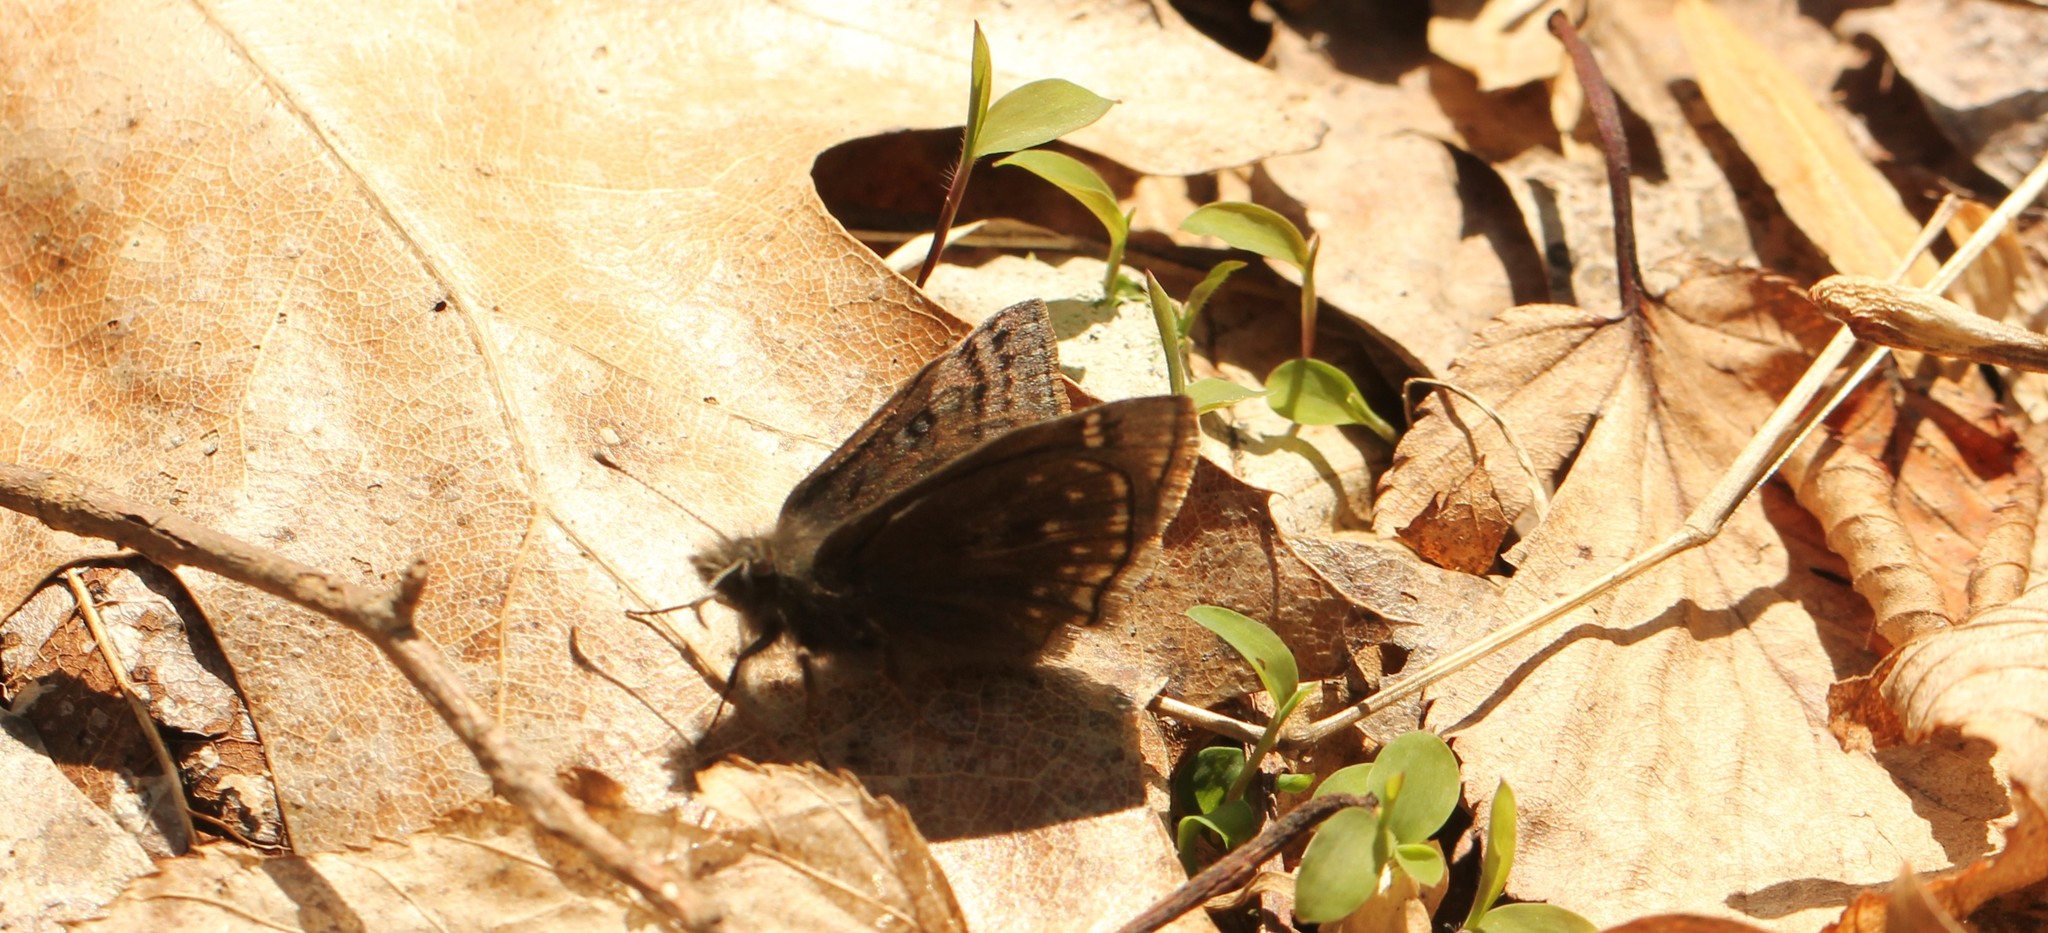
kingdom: Animalia
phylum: Arthropoda
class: Insecta
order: Lepidoptera
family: Hesperiidae
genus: Erynnis
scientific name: Erynnis brizo
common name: Sleepy duskywing
